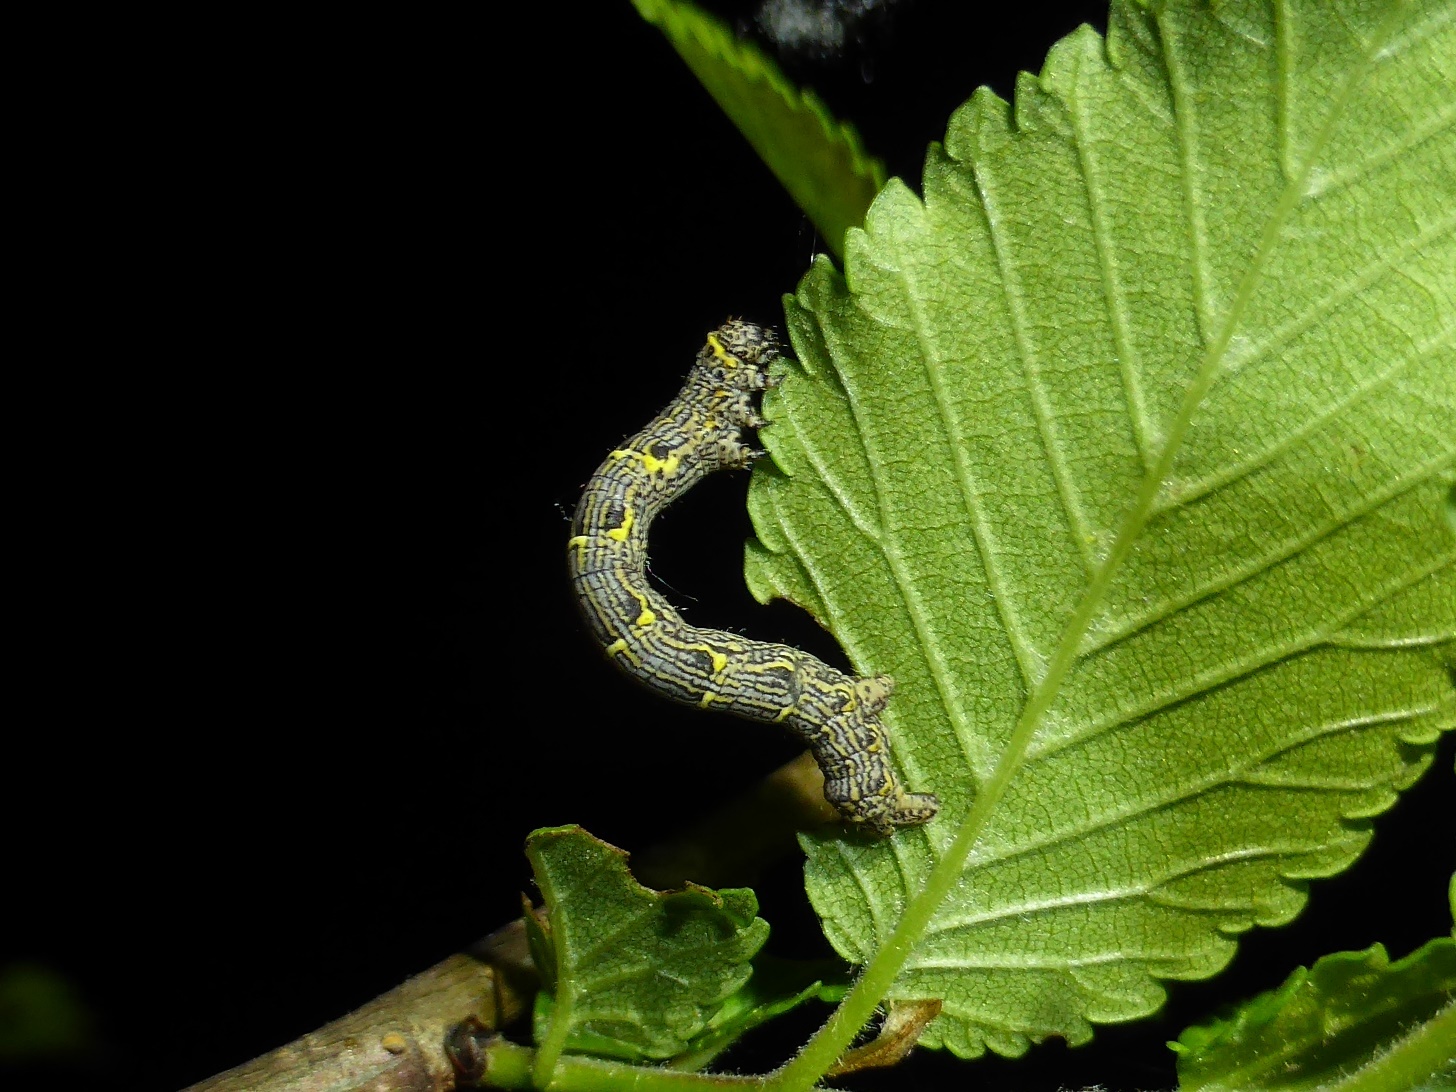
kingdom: Animalia
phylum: Arthropoda
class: Insecta
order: Lepidoptera
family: Geometridae
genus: Lycia
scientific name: Lycia pomonaria
